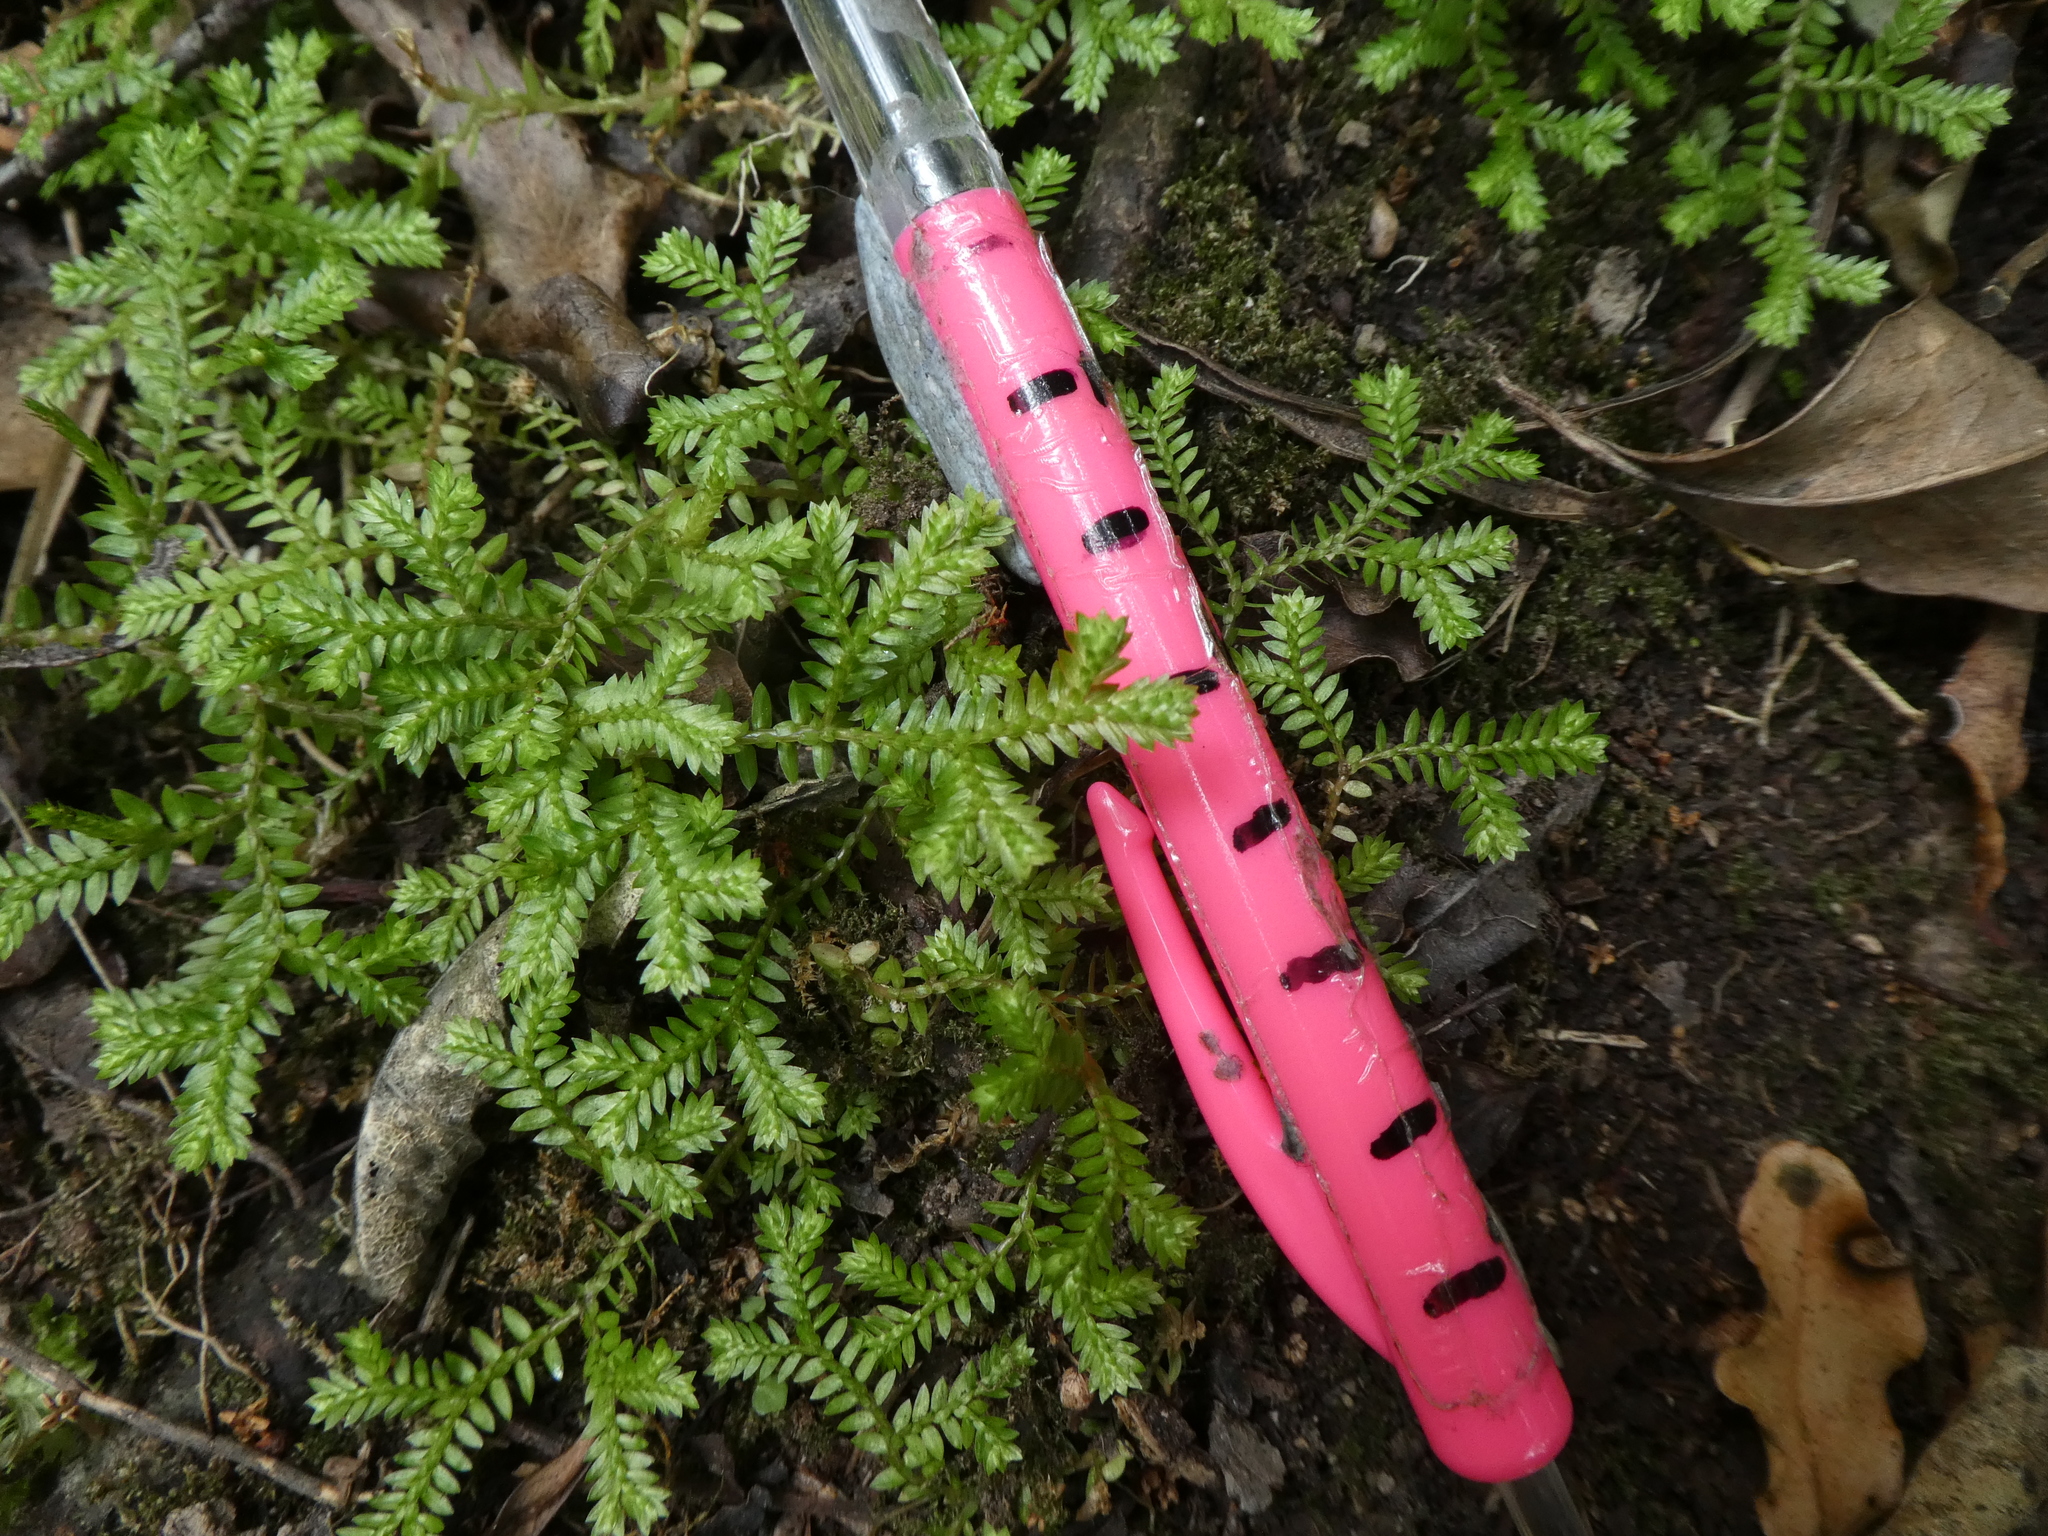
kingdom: Plantae
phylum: Tracheophyta
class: Lycopodiopsida
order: Selaginellales
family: Selaginellaceae
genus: Selaginella
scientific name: Selaginella kraussiana
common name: Krauss' spikemoss
